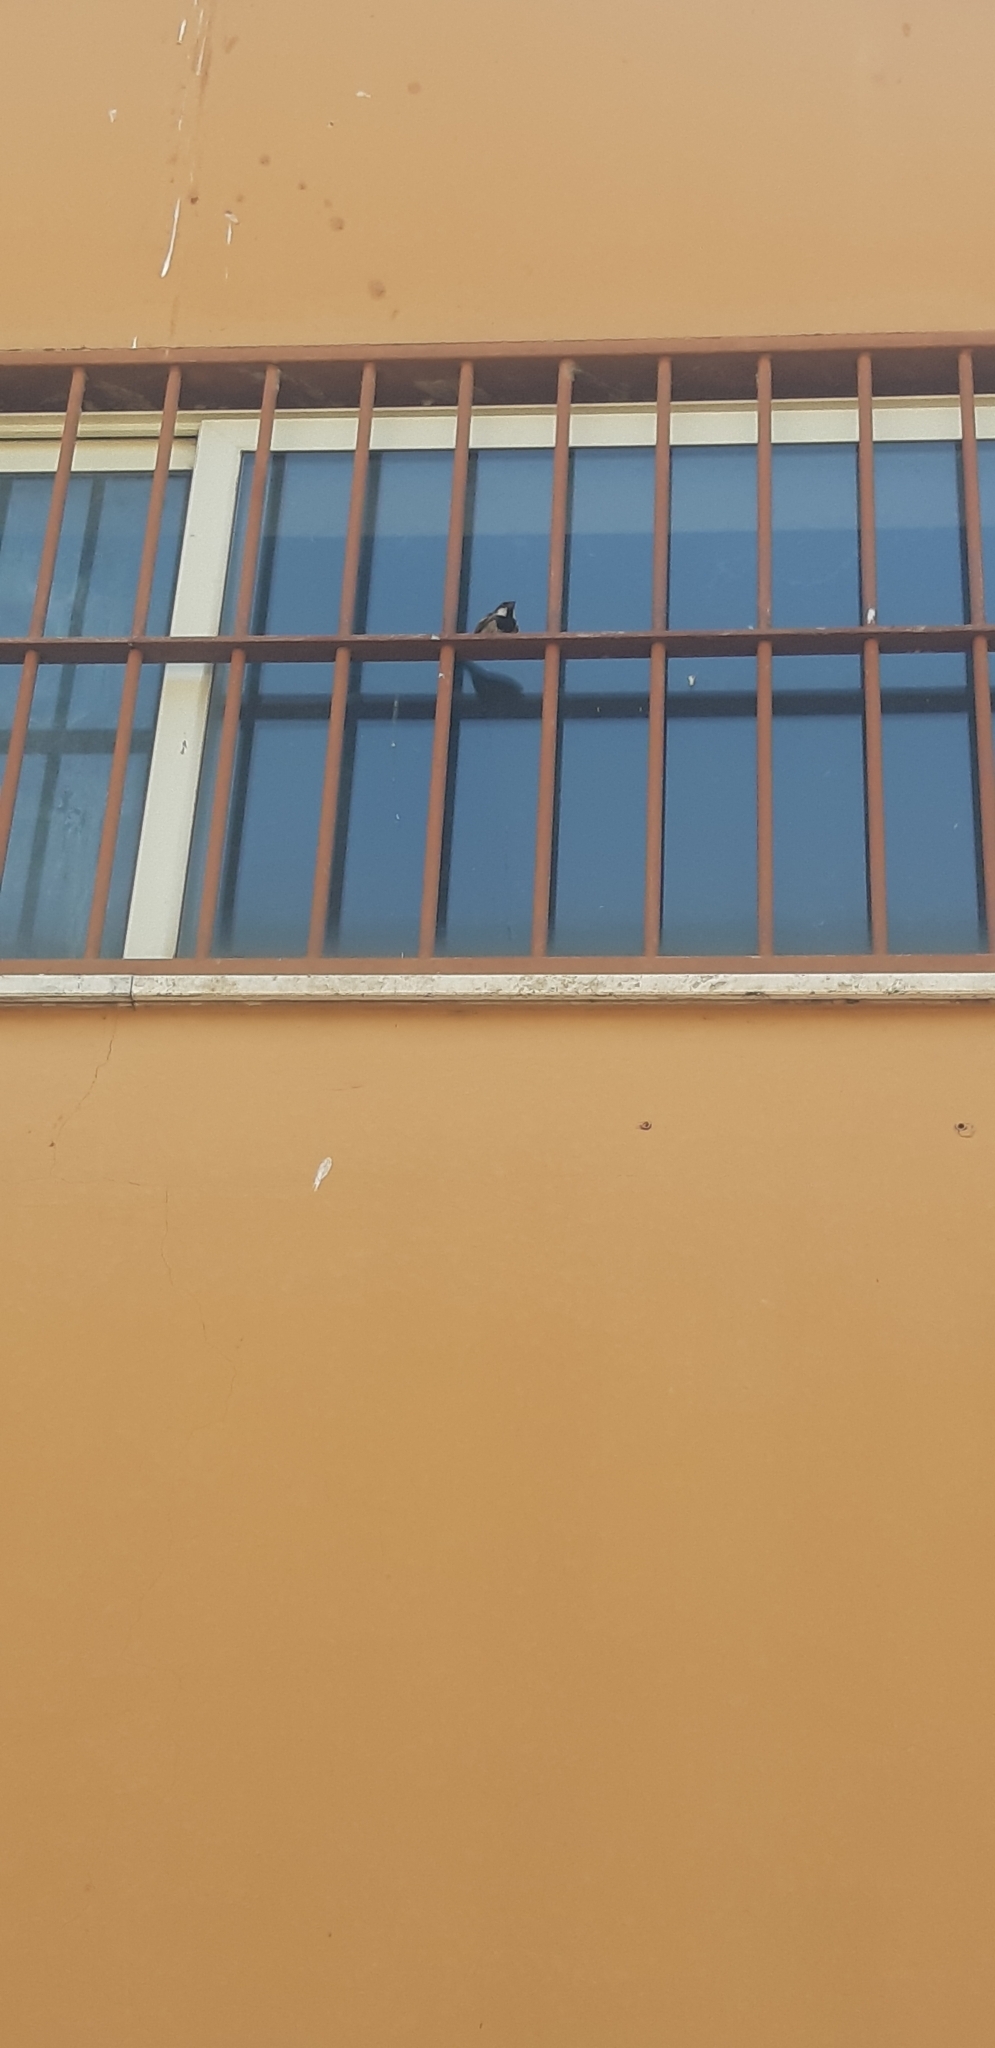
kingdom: Animalia
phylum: Chordata
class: Aves
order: Passeriformes
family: Passeridae
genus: Passer
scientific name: Passer italiae
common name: Italian sparrow
